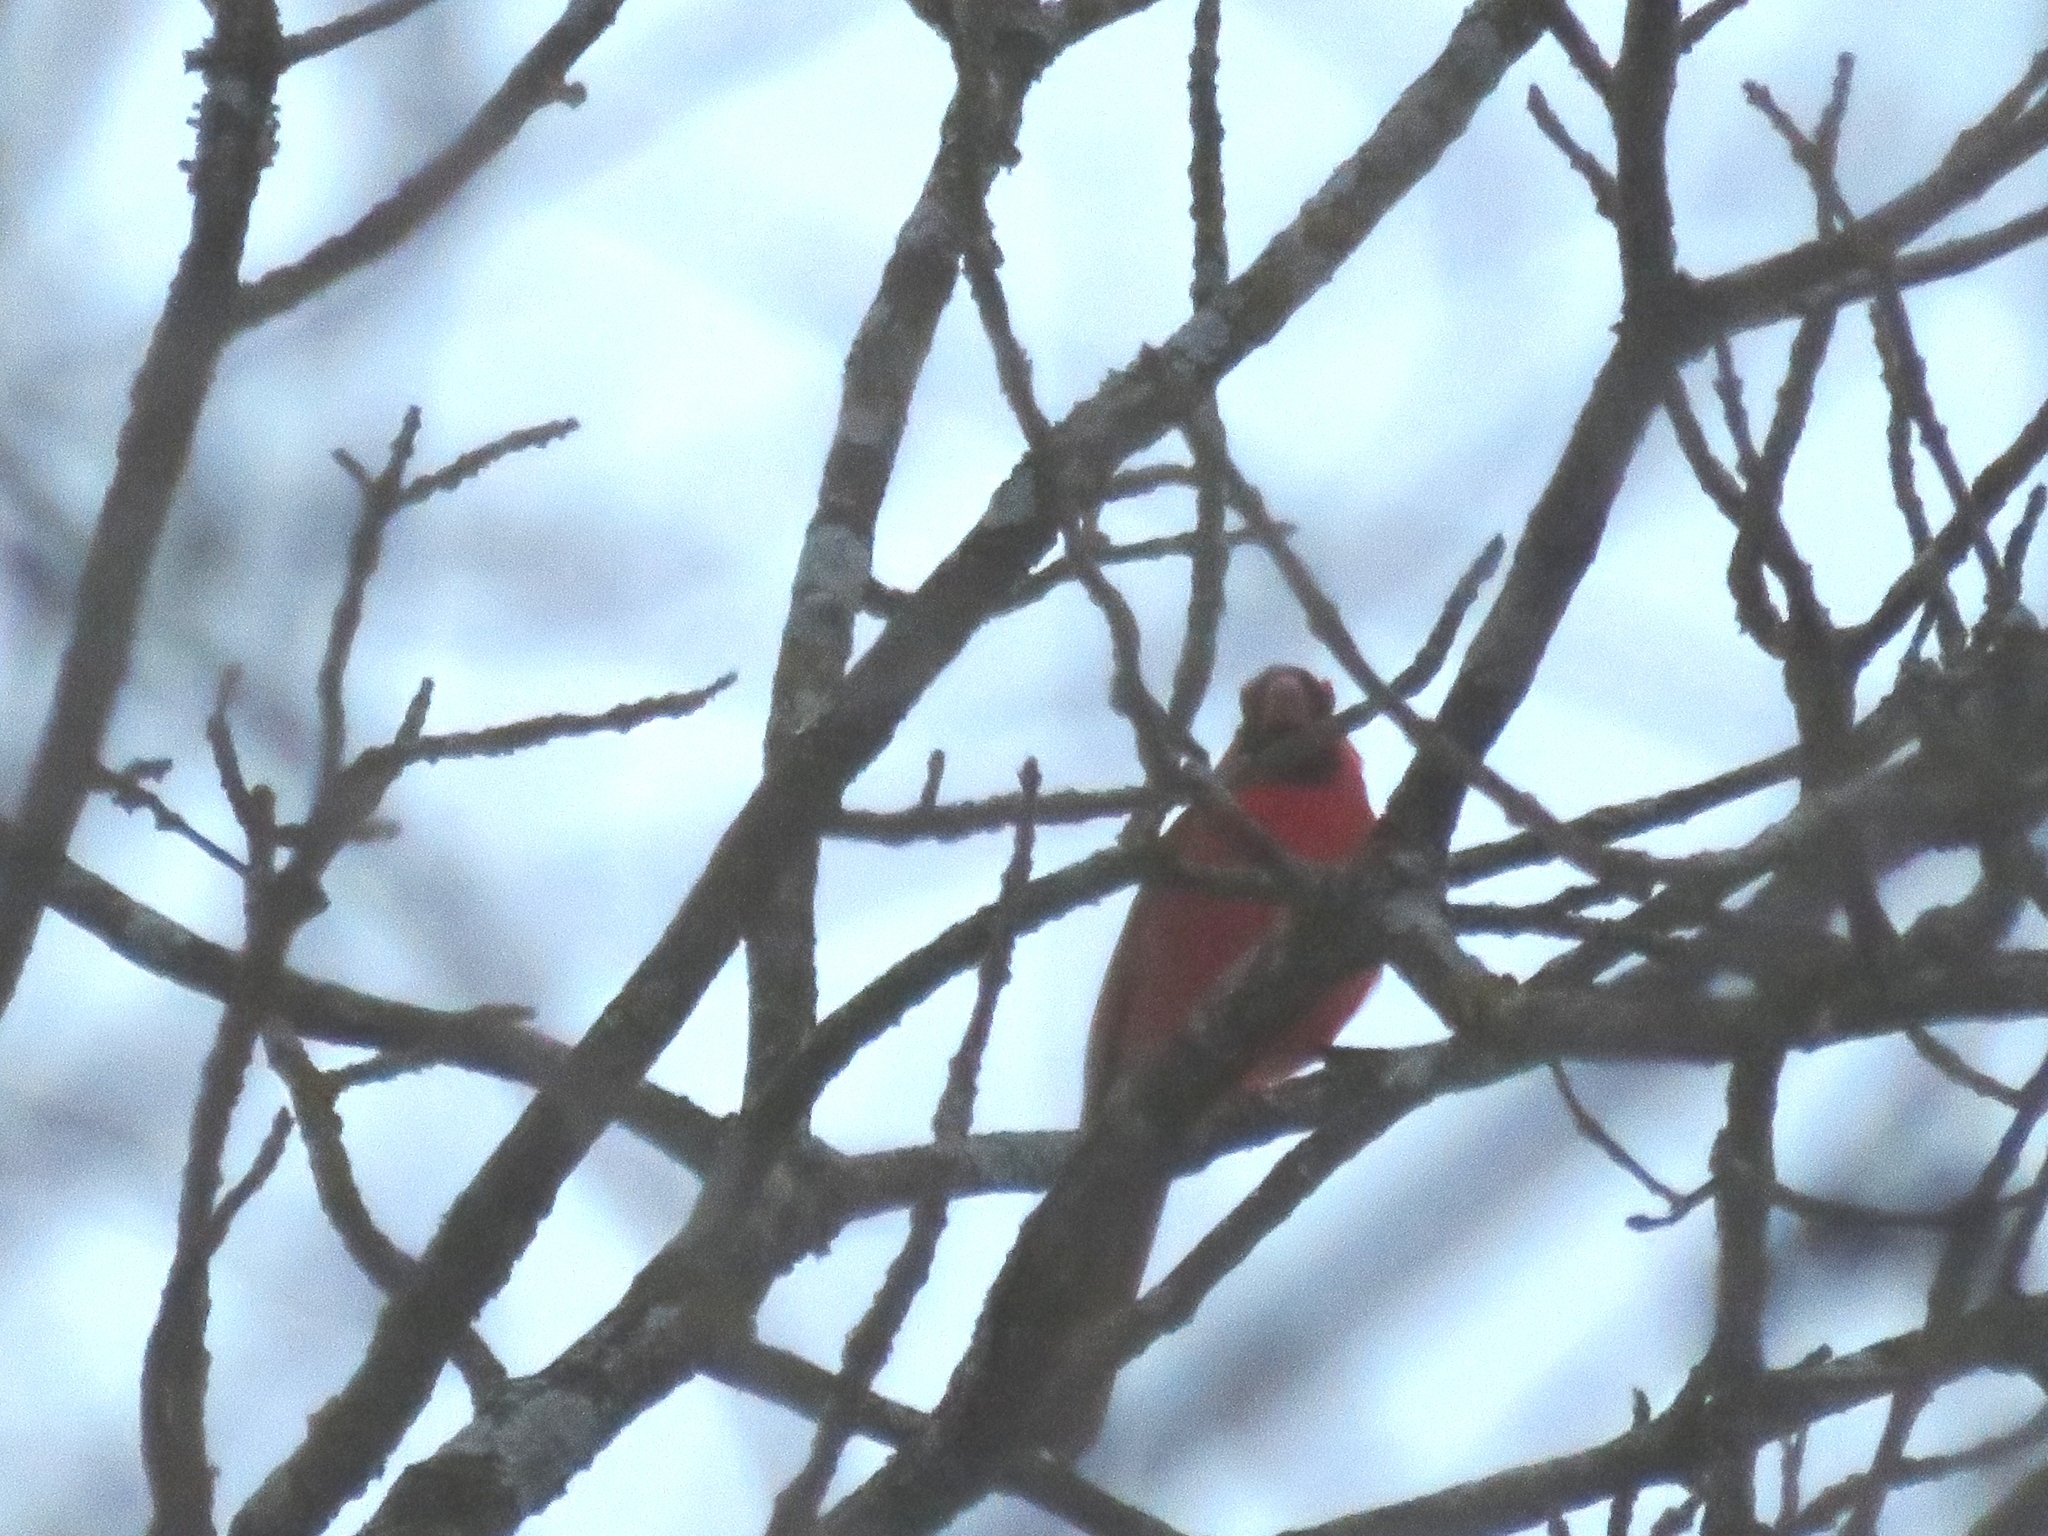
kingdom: Animalia
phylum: Chordata
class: Aves
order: Passeriformes
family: Cardinalidae
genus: Cardinalis
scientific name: Cardinalis cardinalis
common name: Northern cardinal
